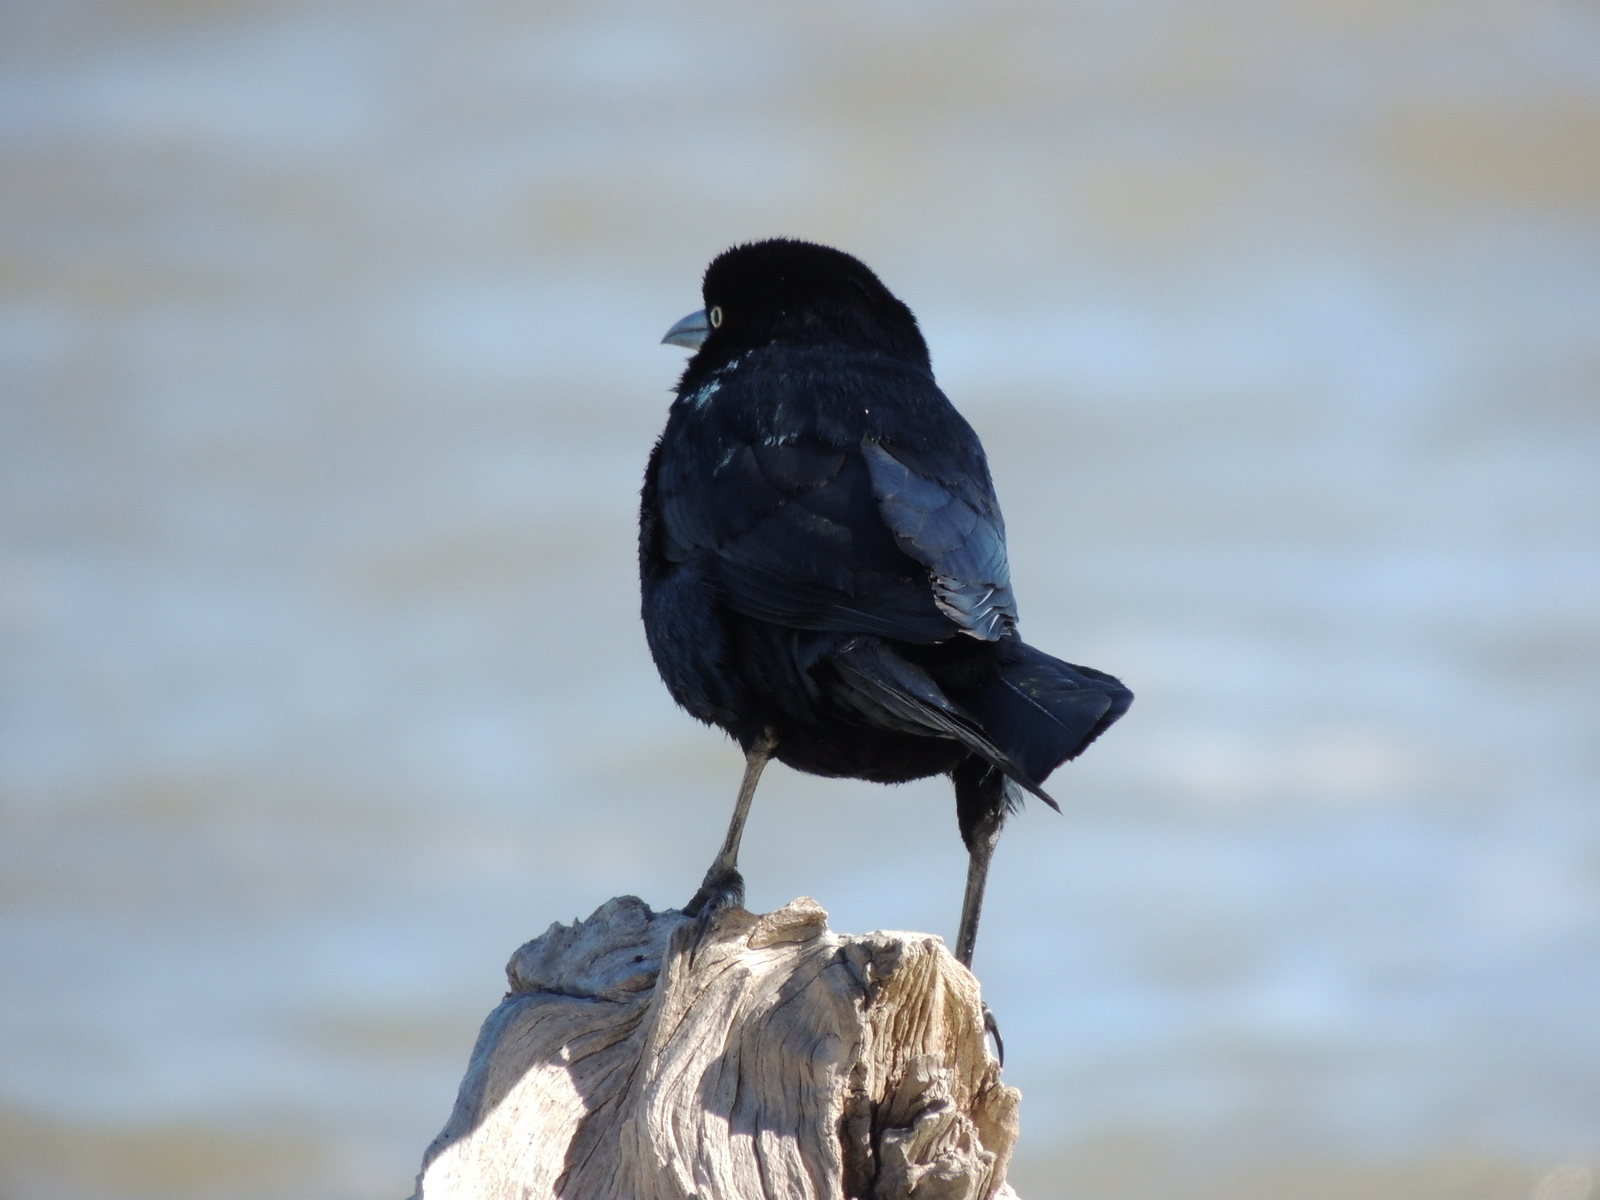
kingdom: Animalia
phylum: Chordata
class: Aves
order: Passeriformes
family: Icteridae
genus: Quiscalus
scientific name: Quiscalus major
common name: Boat-tailed grackle
